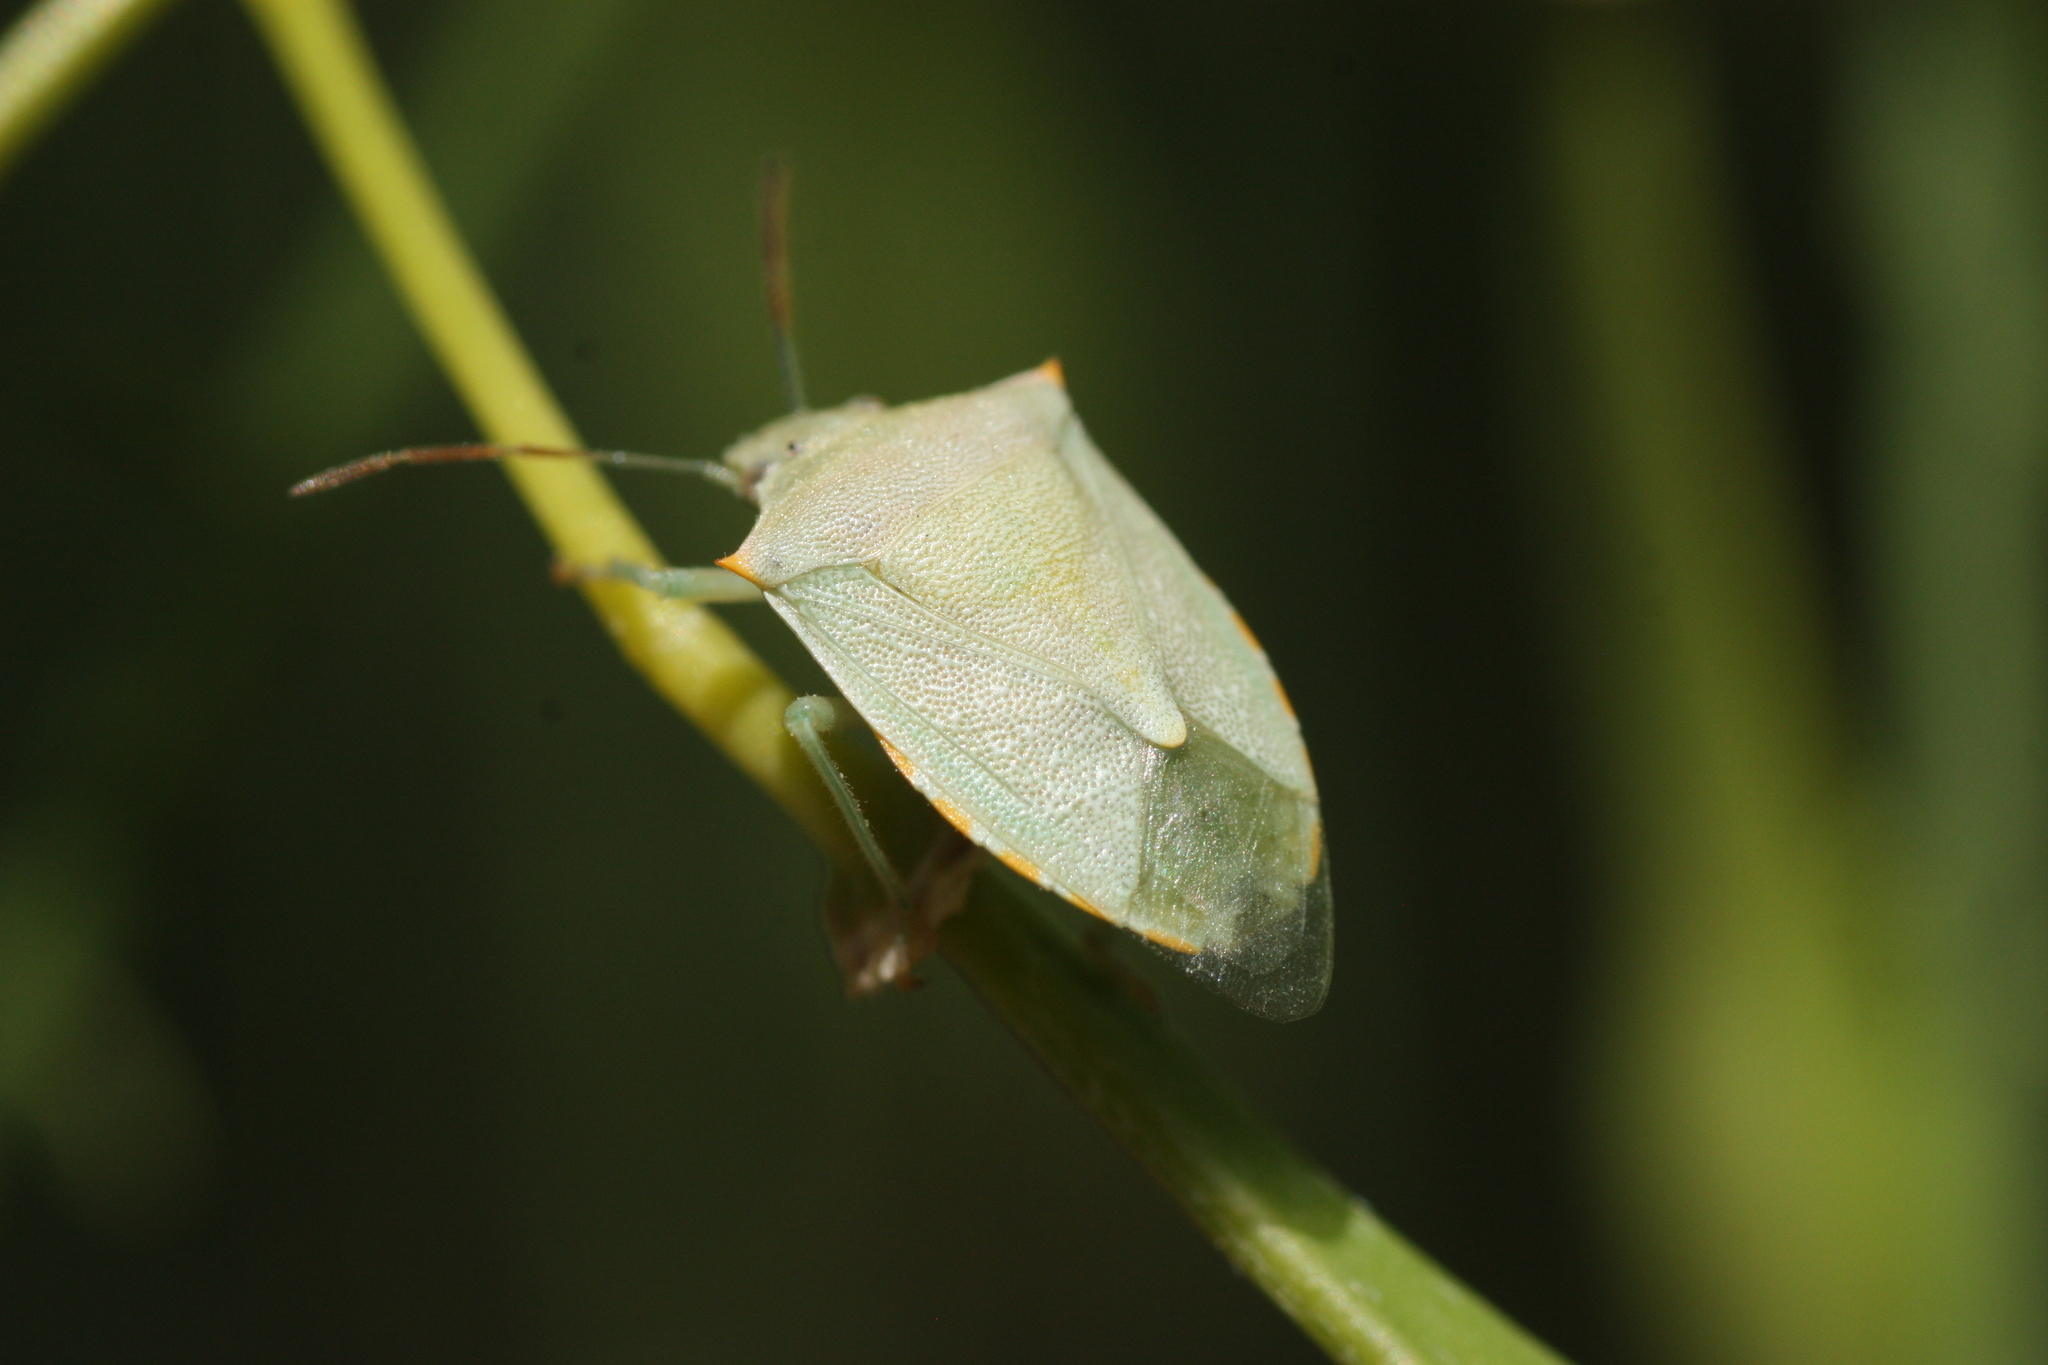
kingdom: Animalia
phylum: Arthropoda
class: Insecta
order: Hemiptera
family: Pentatomidae
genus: Thyanta
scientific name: Thyanta accerra
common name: Stink bug
